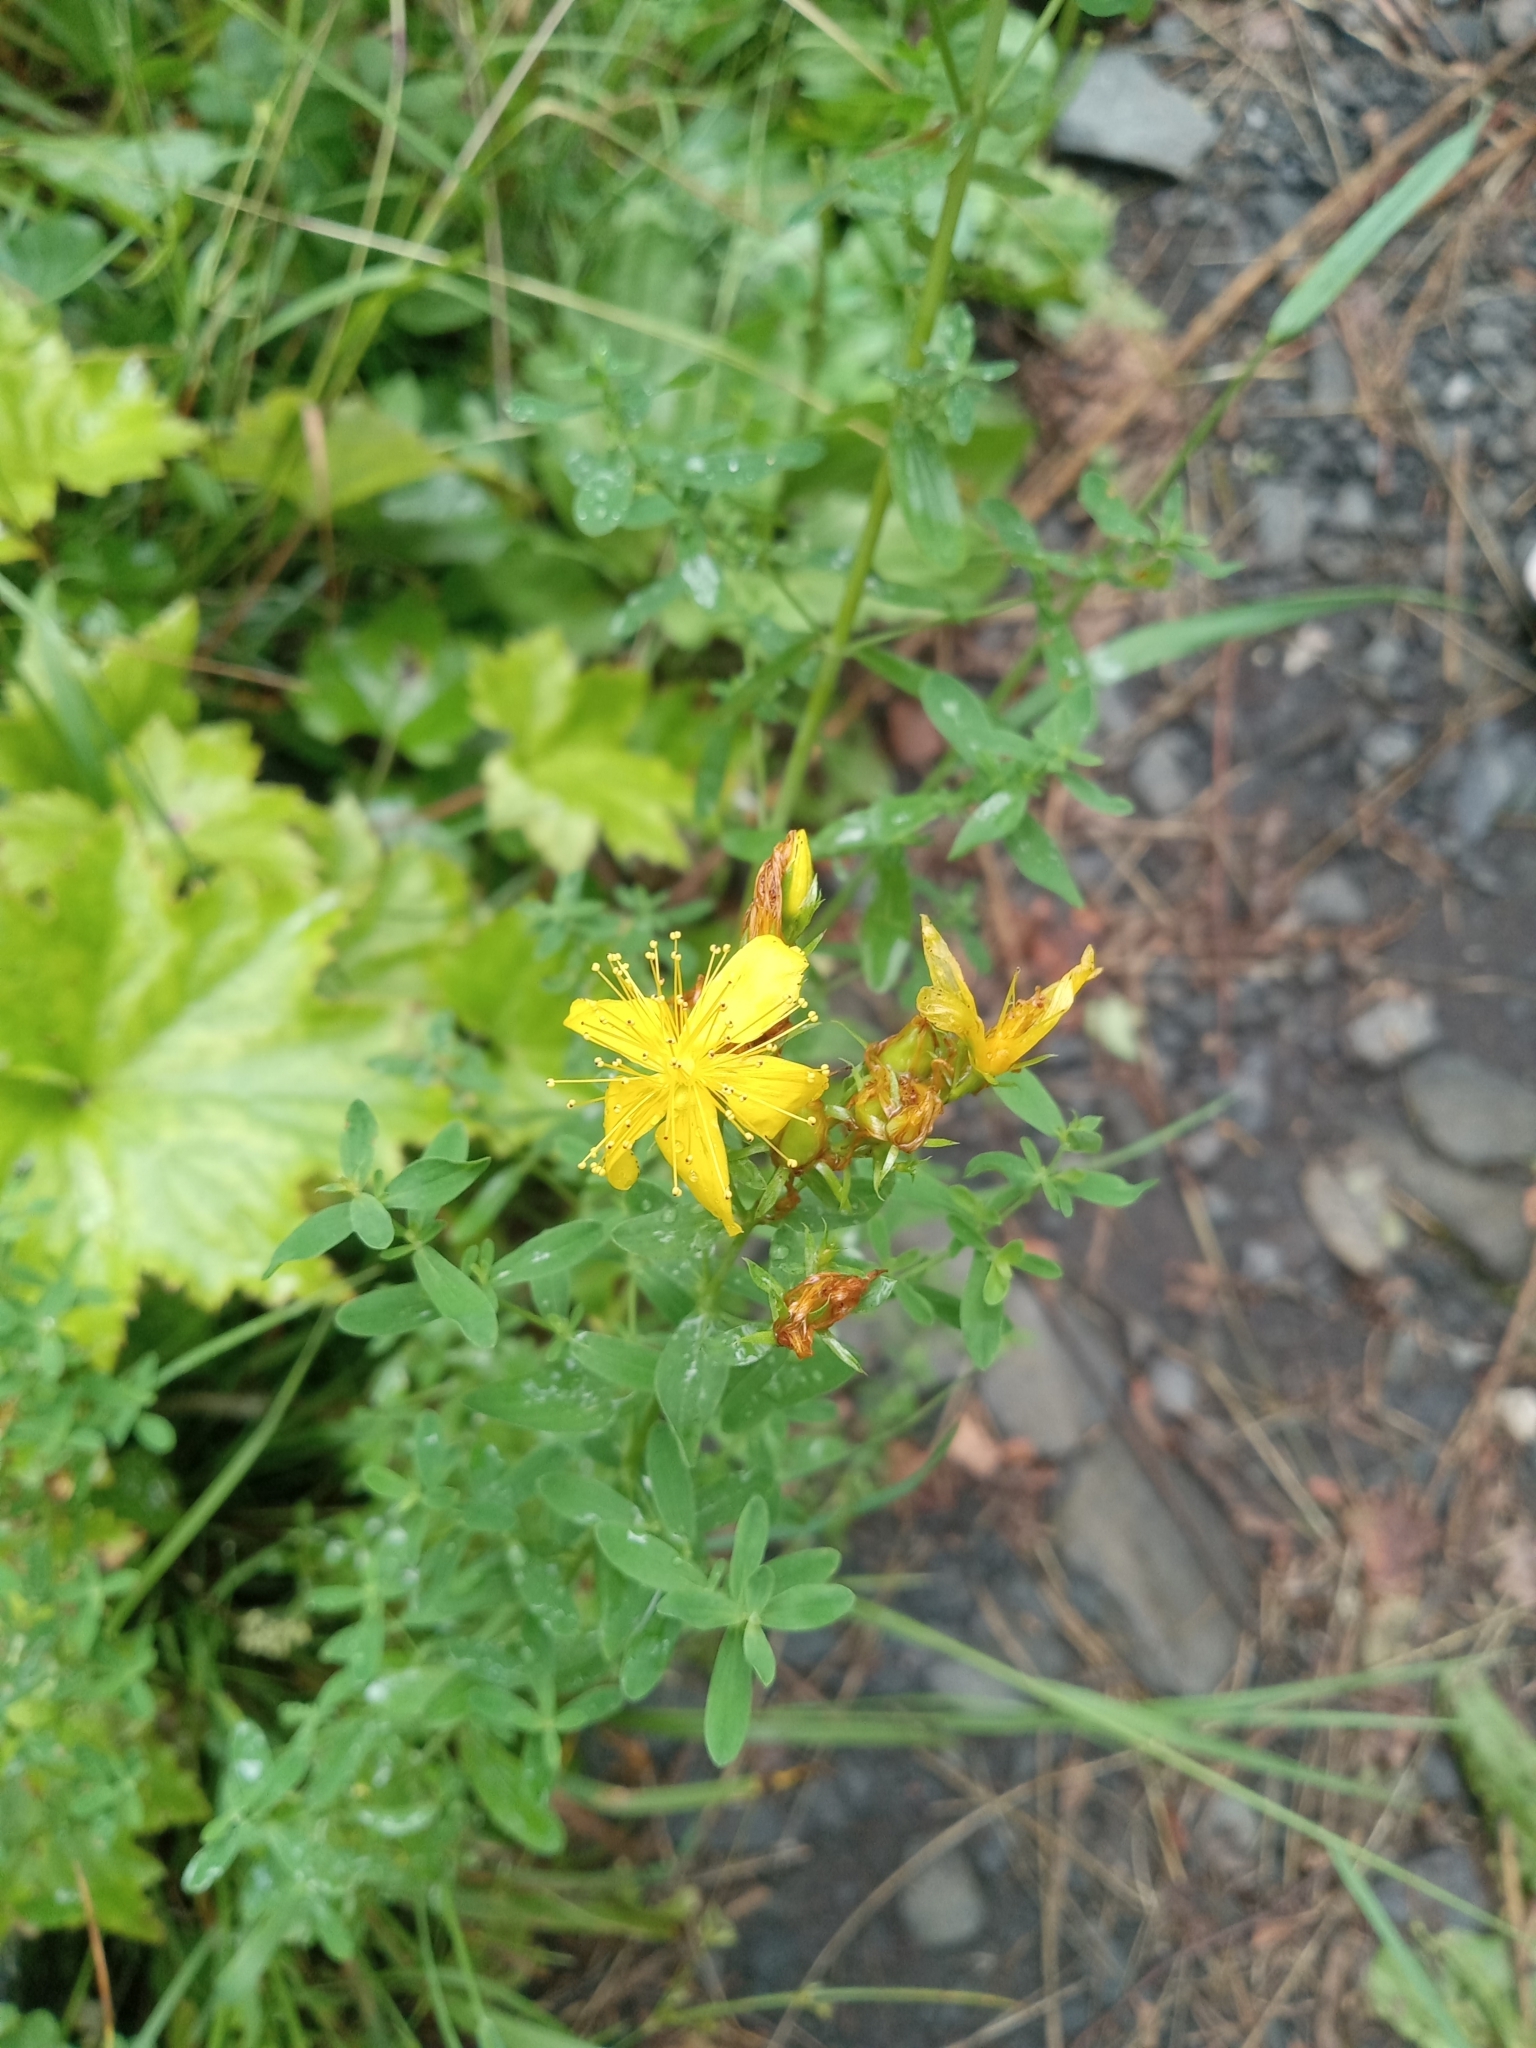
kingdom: Plantae
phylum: Tracheophyta
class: Magnoliopsida
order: Malpighiales
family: Hypericaceae
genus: Hypericum
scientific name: Hypericum perforatum
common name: Common st. johnswort
